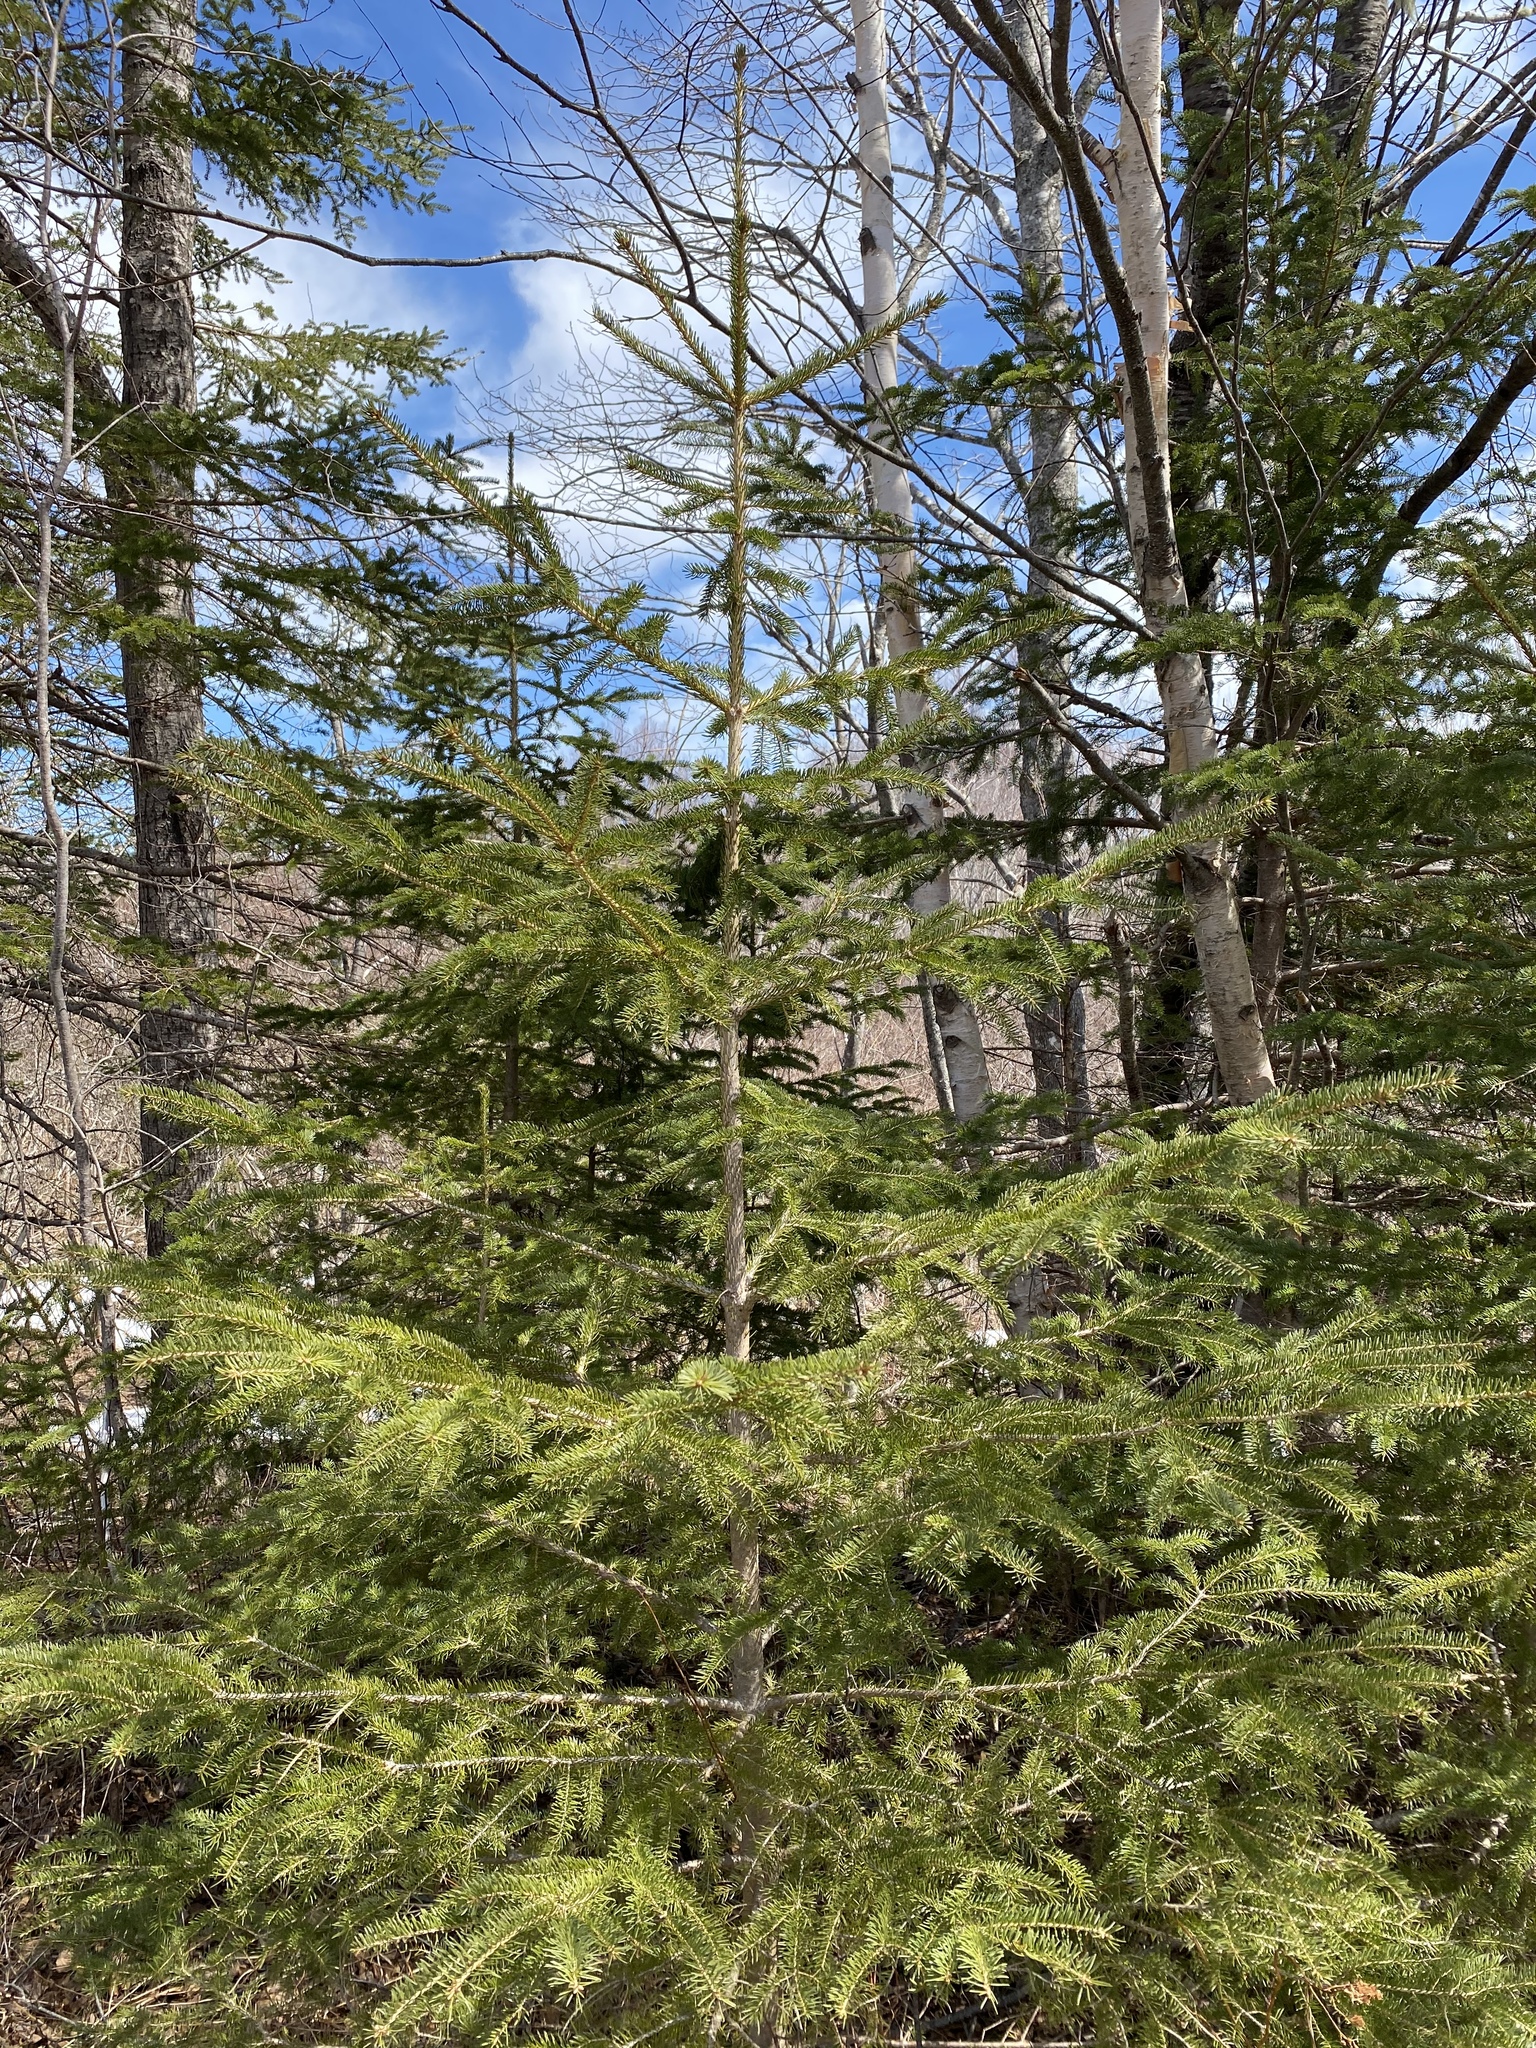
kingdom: Plantae
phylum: Tracheophyta
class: Pinopsida
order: Pinales
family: Pinaceae
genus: Picea
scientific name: Picea glauca
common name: White spruce
